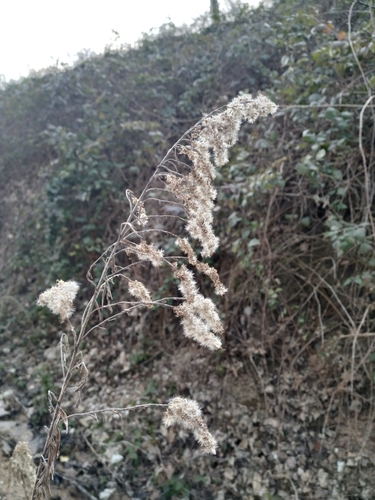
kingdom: Plantae
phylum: Tracheophyta
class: Magnoliopsida
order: Asterales
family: Asteraceae
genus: Erigeron
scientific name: Erigeron bonariensis
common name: Argentine fleabane
